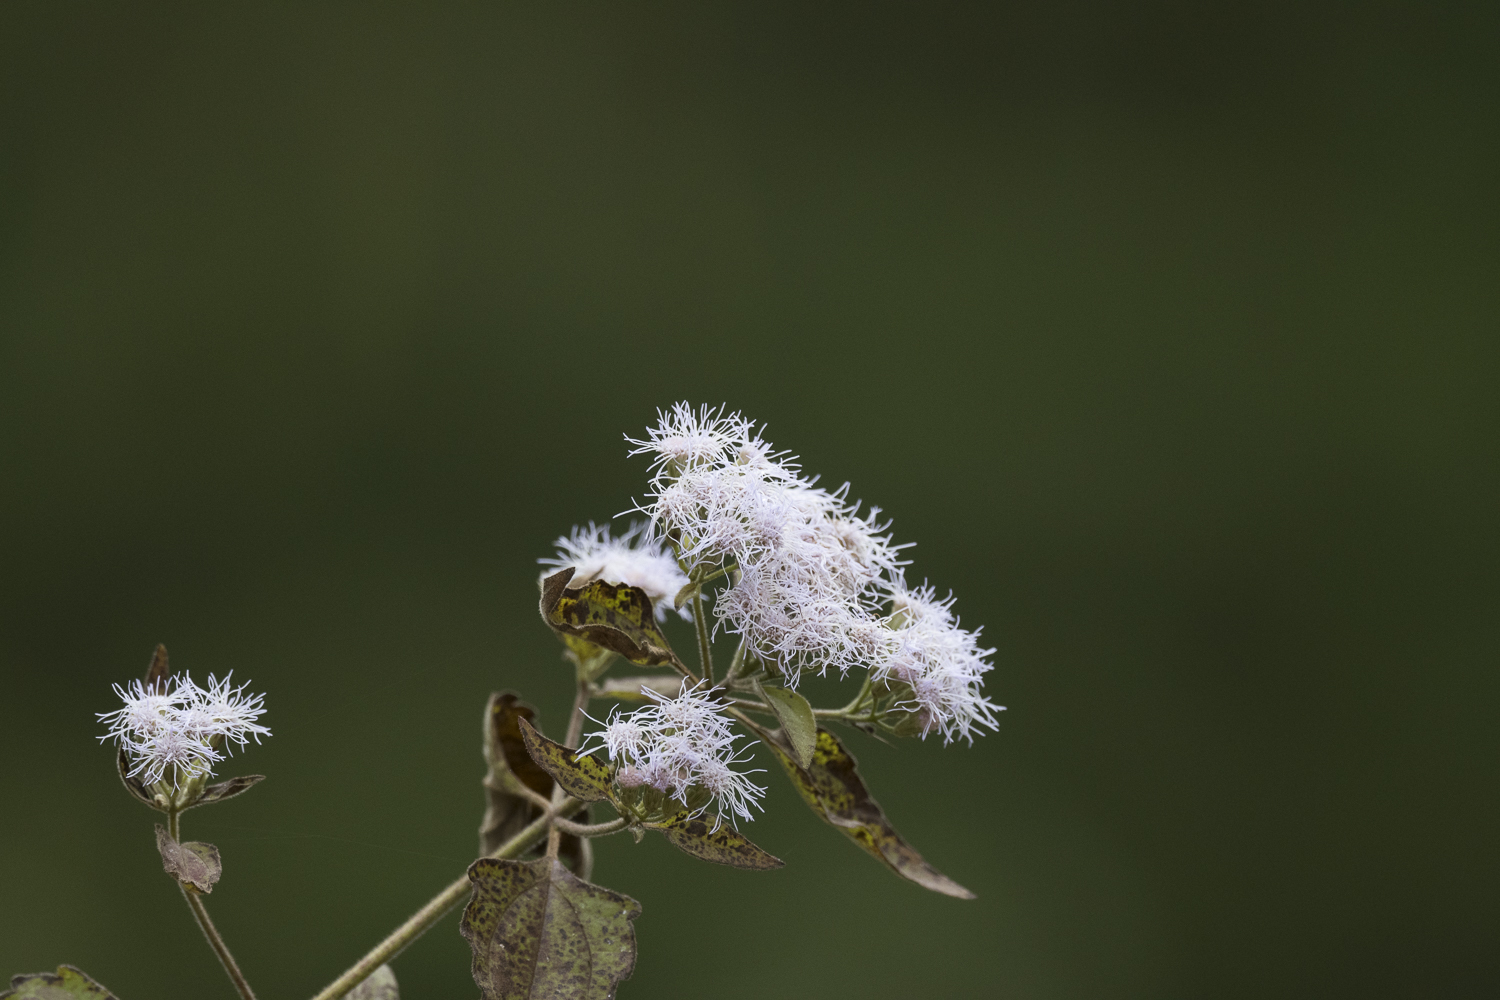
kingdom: Plantae
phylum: Tracheophyta
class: Magnoliopsida
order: Asterales
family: Asteraceae
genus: Chromolaena
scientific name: Chromolaena odorata
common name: Siamweed
